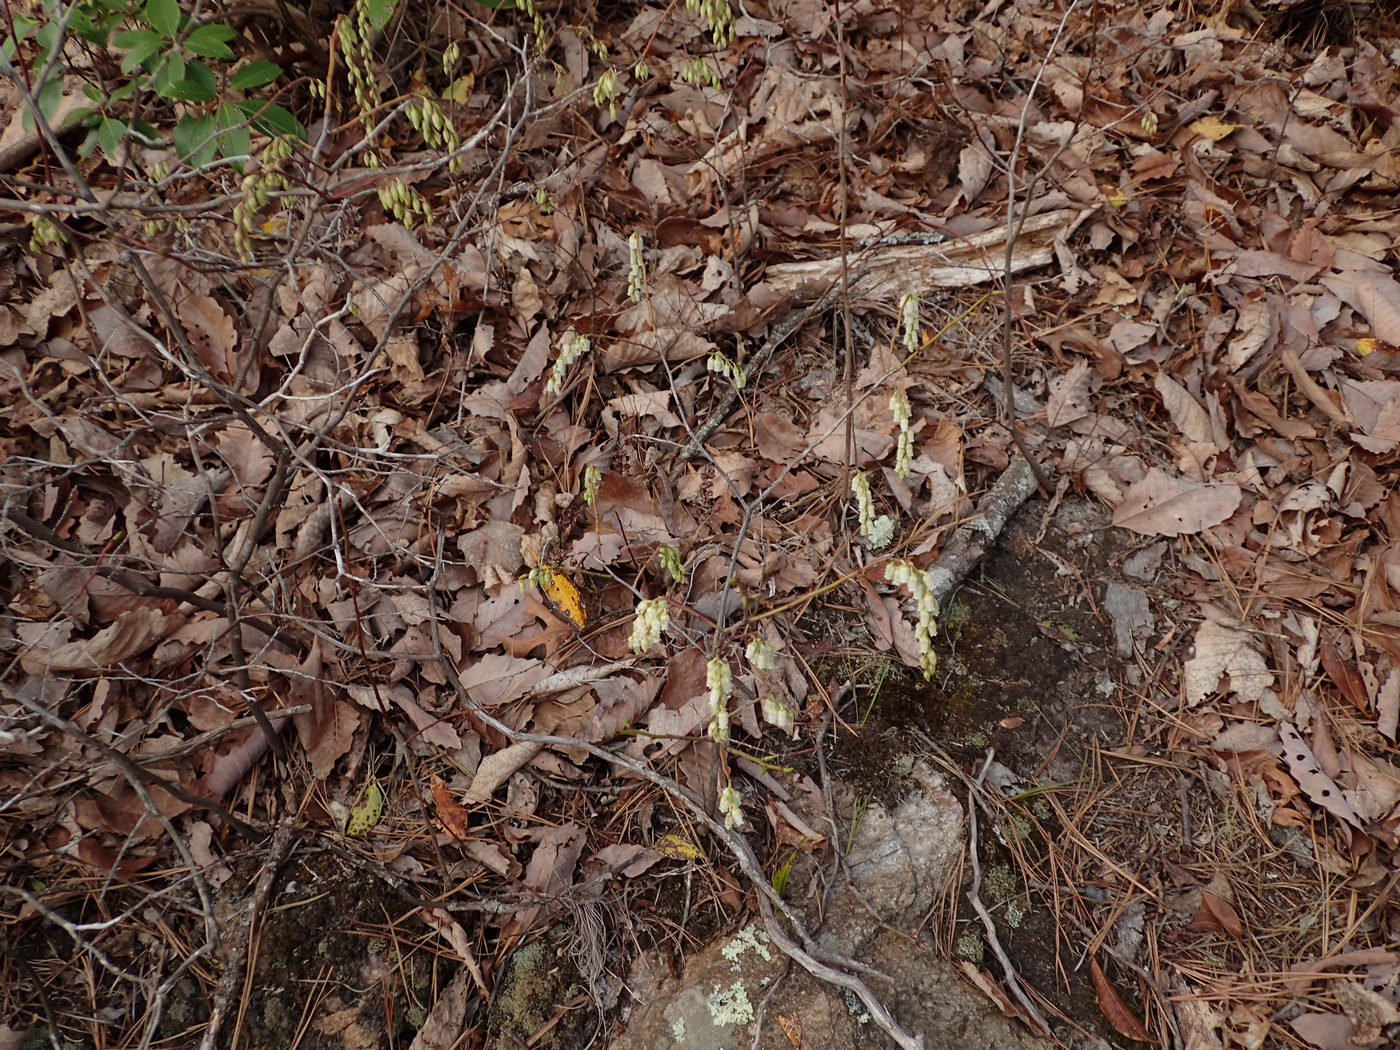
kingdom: Plantae
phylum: Tracheophyta
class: Magnoliopsida
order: Ericales
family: Ericaceae
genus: Eubotrys
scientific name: Eubotrys recurva
